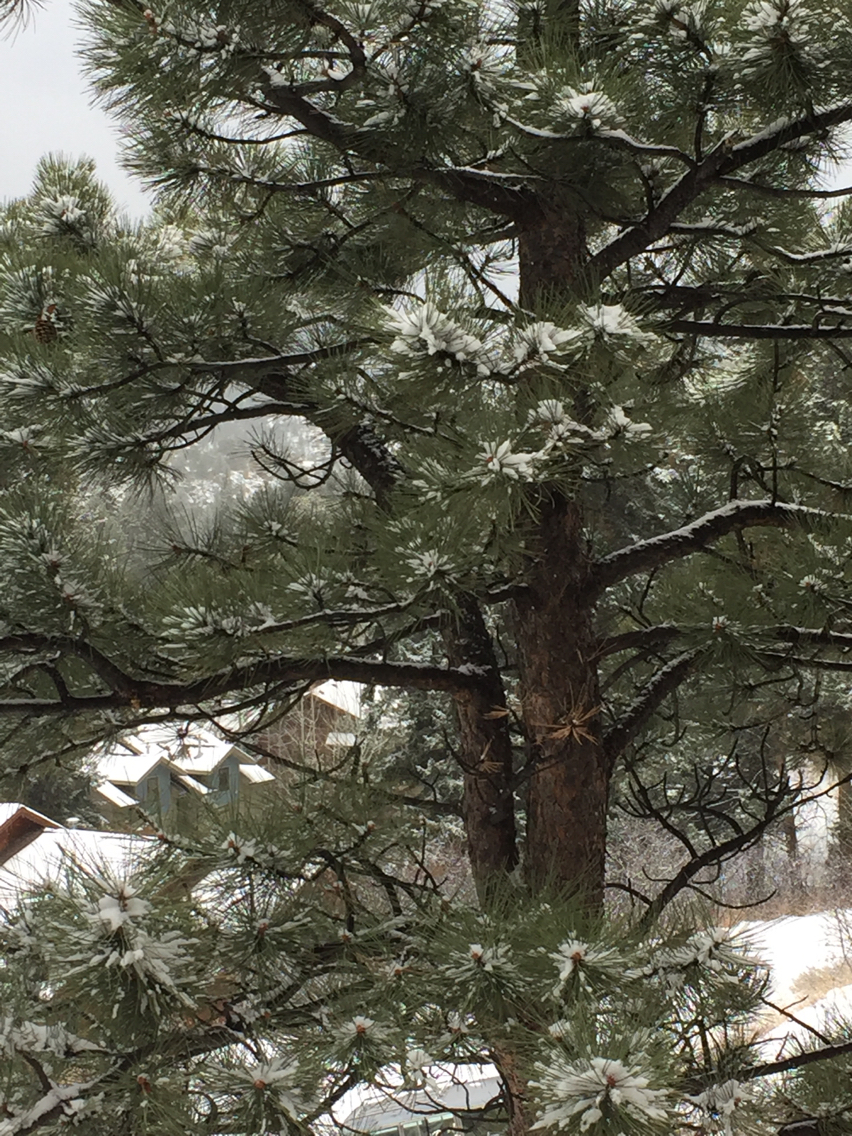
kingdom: Plantae
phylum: Tracheophyta
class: Pinopsida
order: Pinales
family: Pinaceae
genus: Pinus
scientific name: Pinus ponderosa
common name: Western yellow-pine
